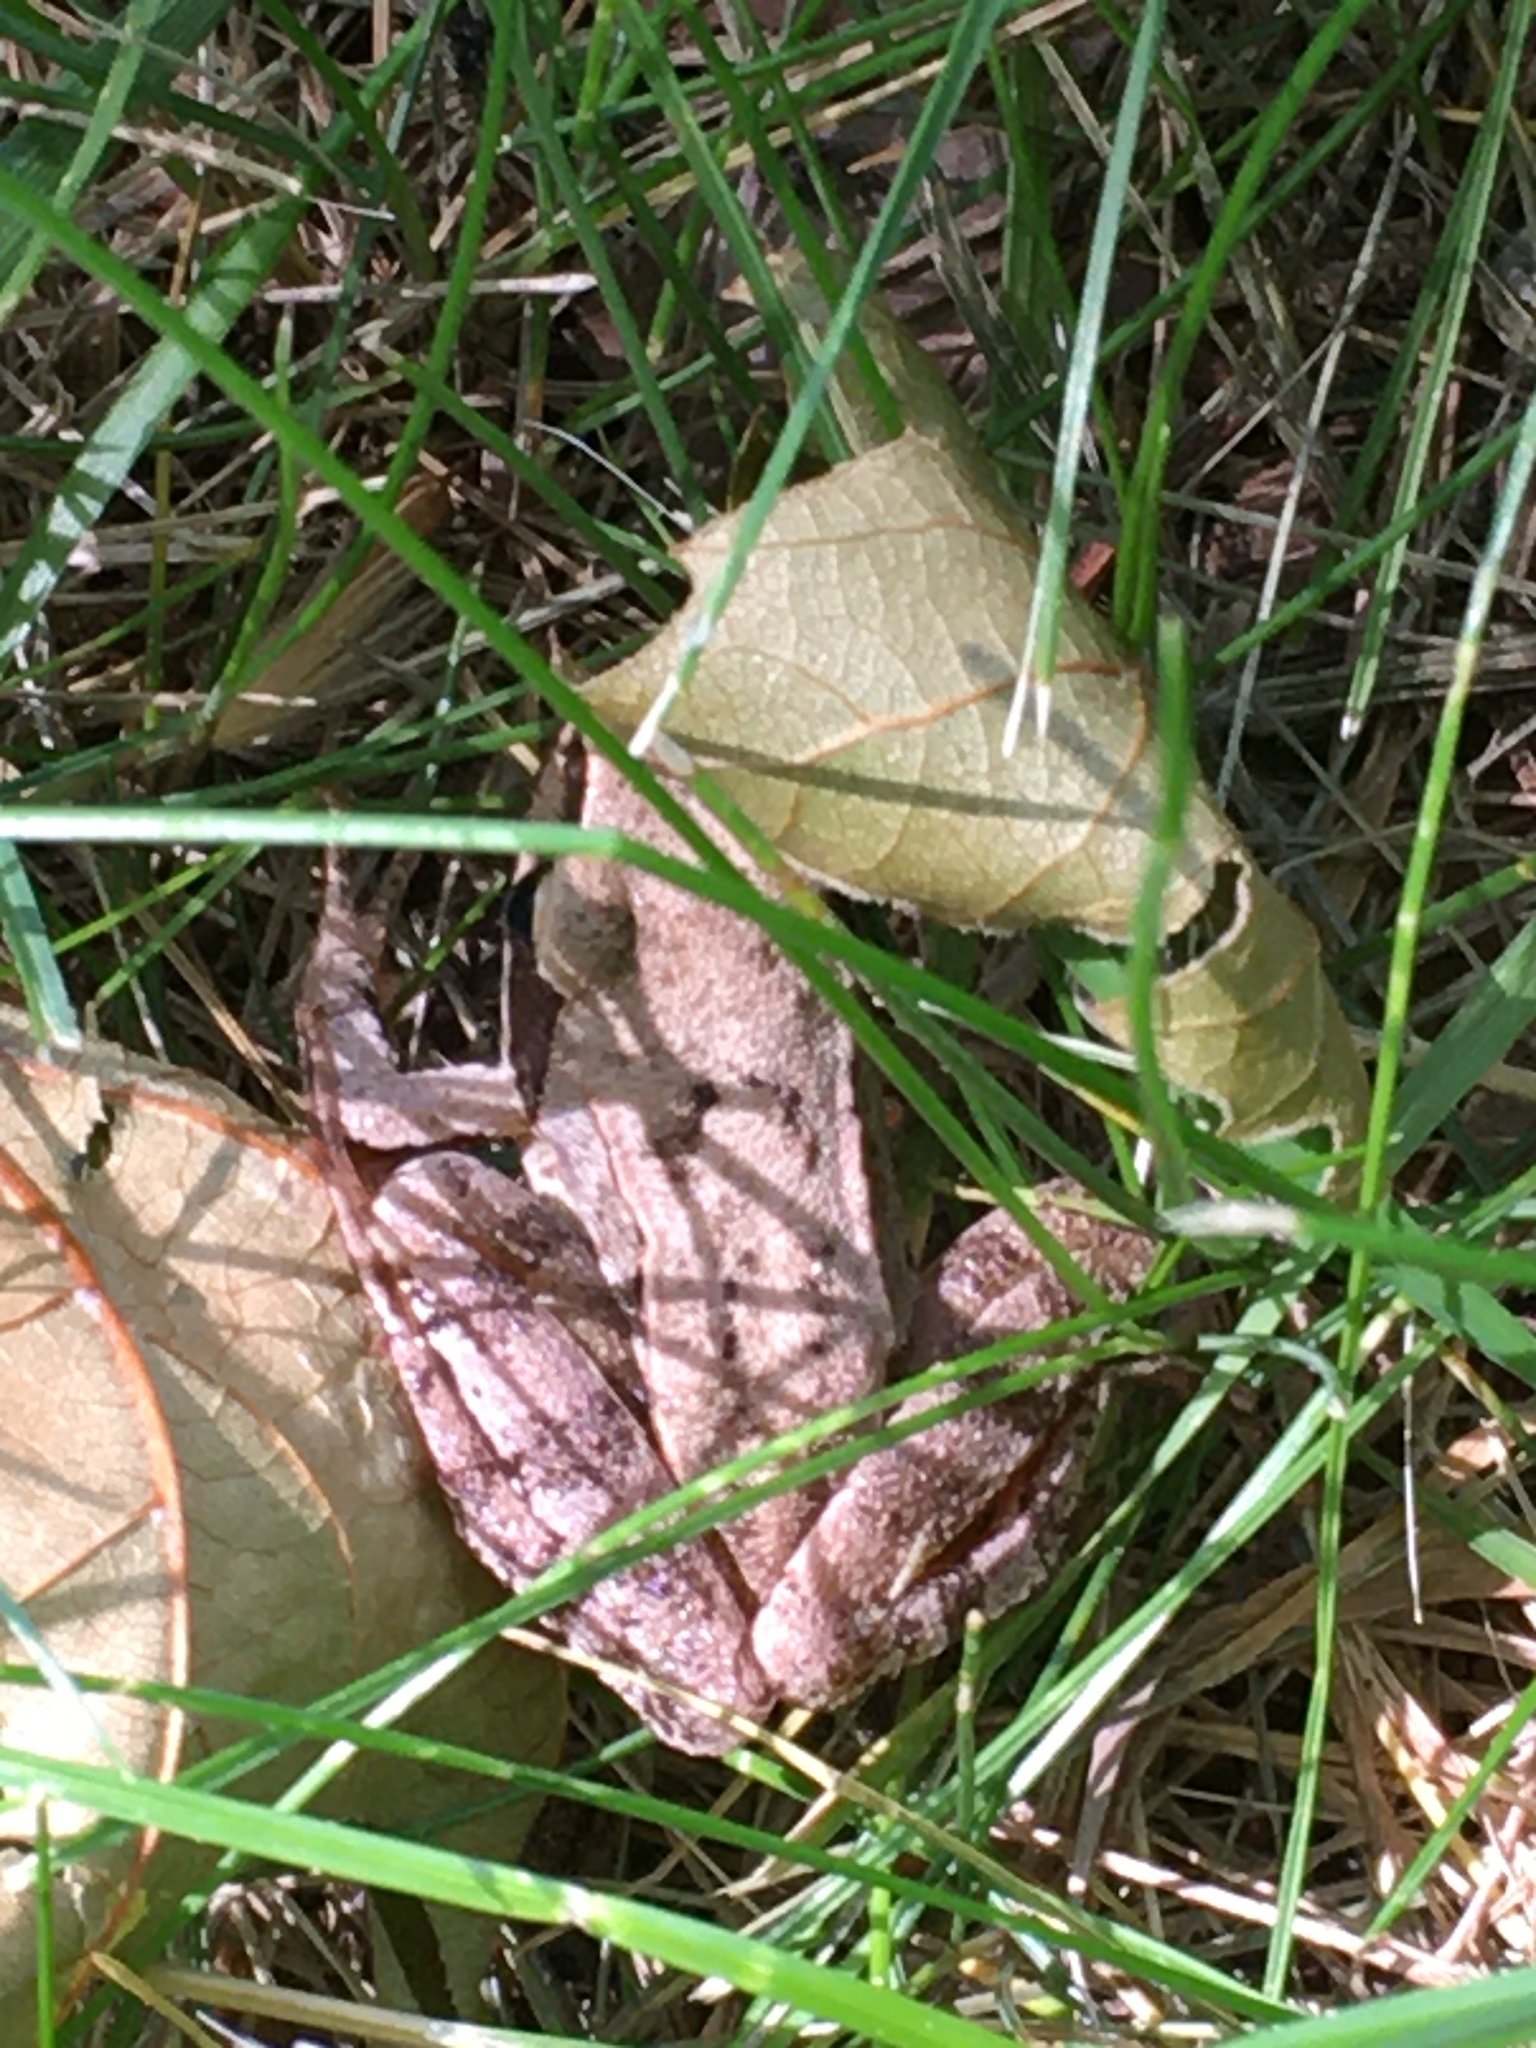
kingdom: Animalia
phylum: Chordata
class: Amphibia
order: Anura
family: Ranidae
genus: Rana
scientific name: Rana dalmatina
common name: Agile frog
